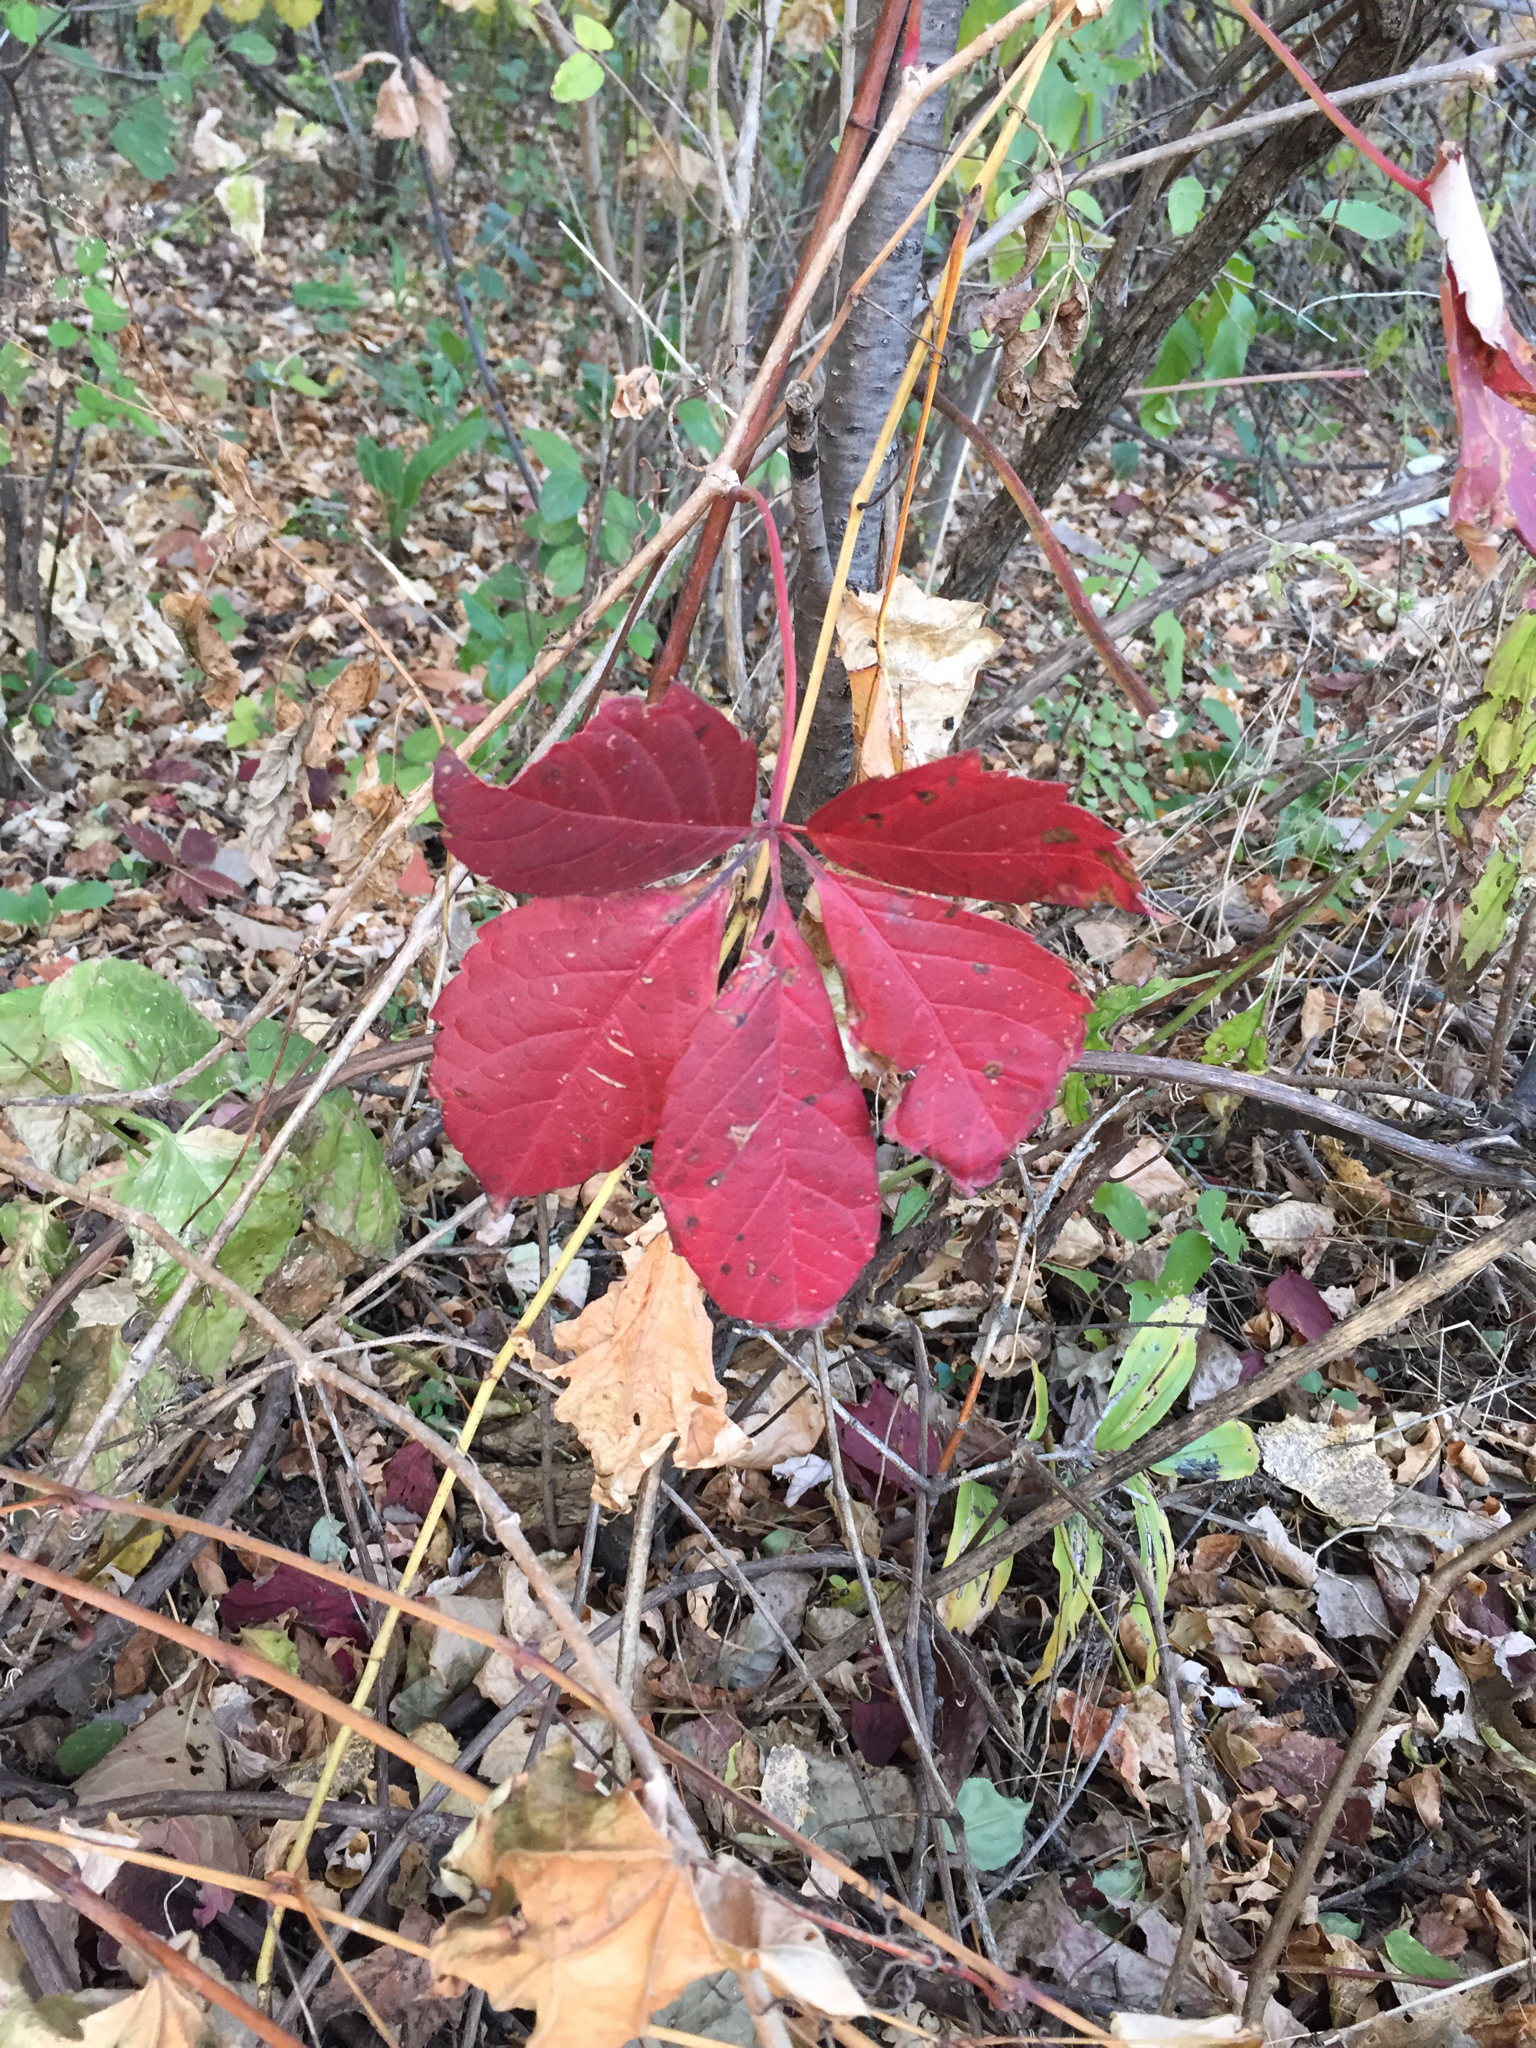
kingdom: Plantae
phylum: Tracheophyta
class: Magnoliopsida
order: Vitales
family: Vitaceae
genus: Parthenocissus
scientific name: Parthenocissus quinquefolia
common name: Virginia-creeper
